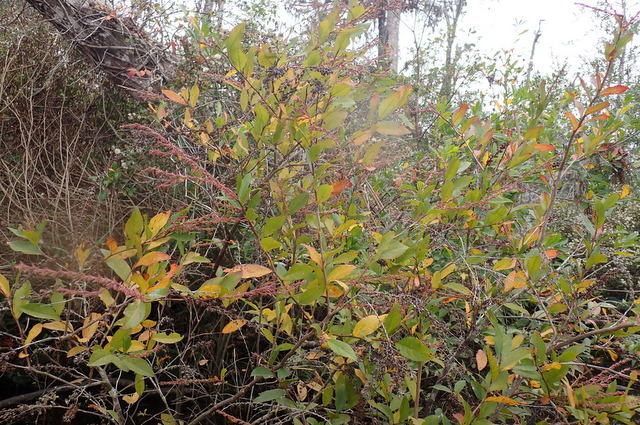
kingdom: Plantae
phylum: Tracheophyta
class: Magnoliopsida
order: Ericales
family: Ericaceae
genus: Eubotrys
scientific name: Eubotrys racemosa
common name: Fetterbush
